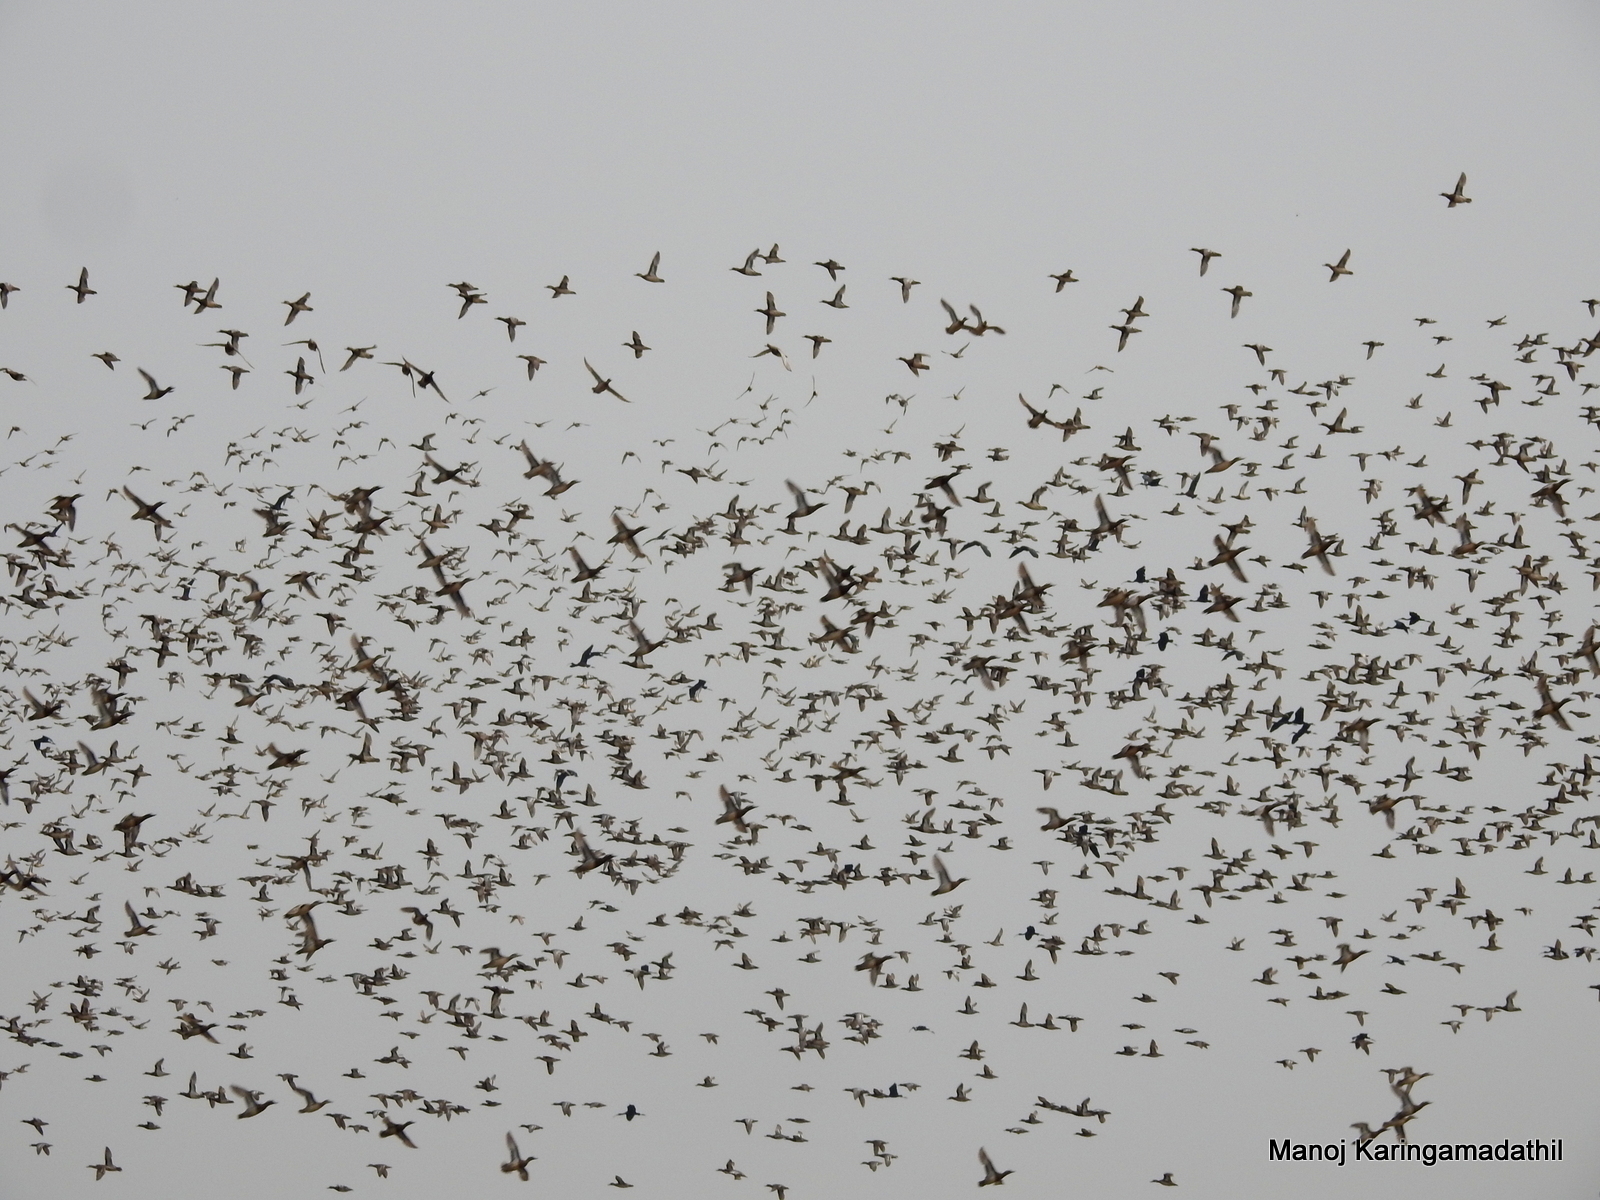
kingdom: Animalia
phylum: Chordata
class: Aves
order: Anseriformes
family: Anatidae
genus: Spatula
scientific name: Spatula querquedula
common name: Garganey
